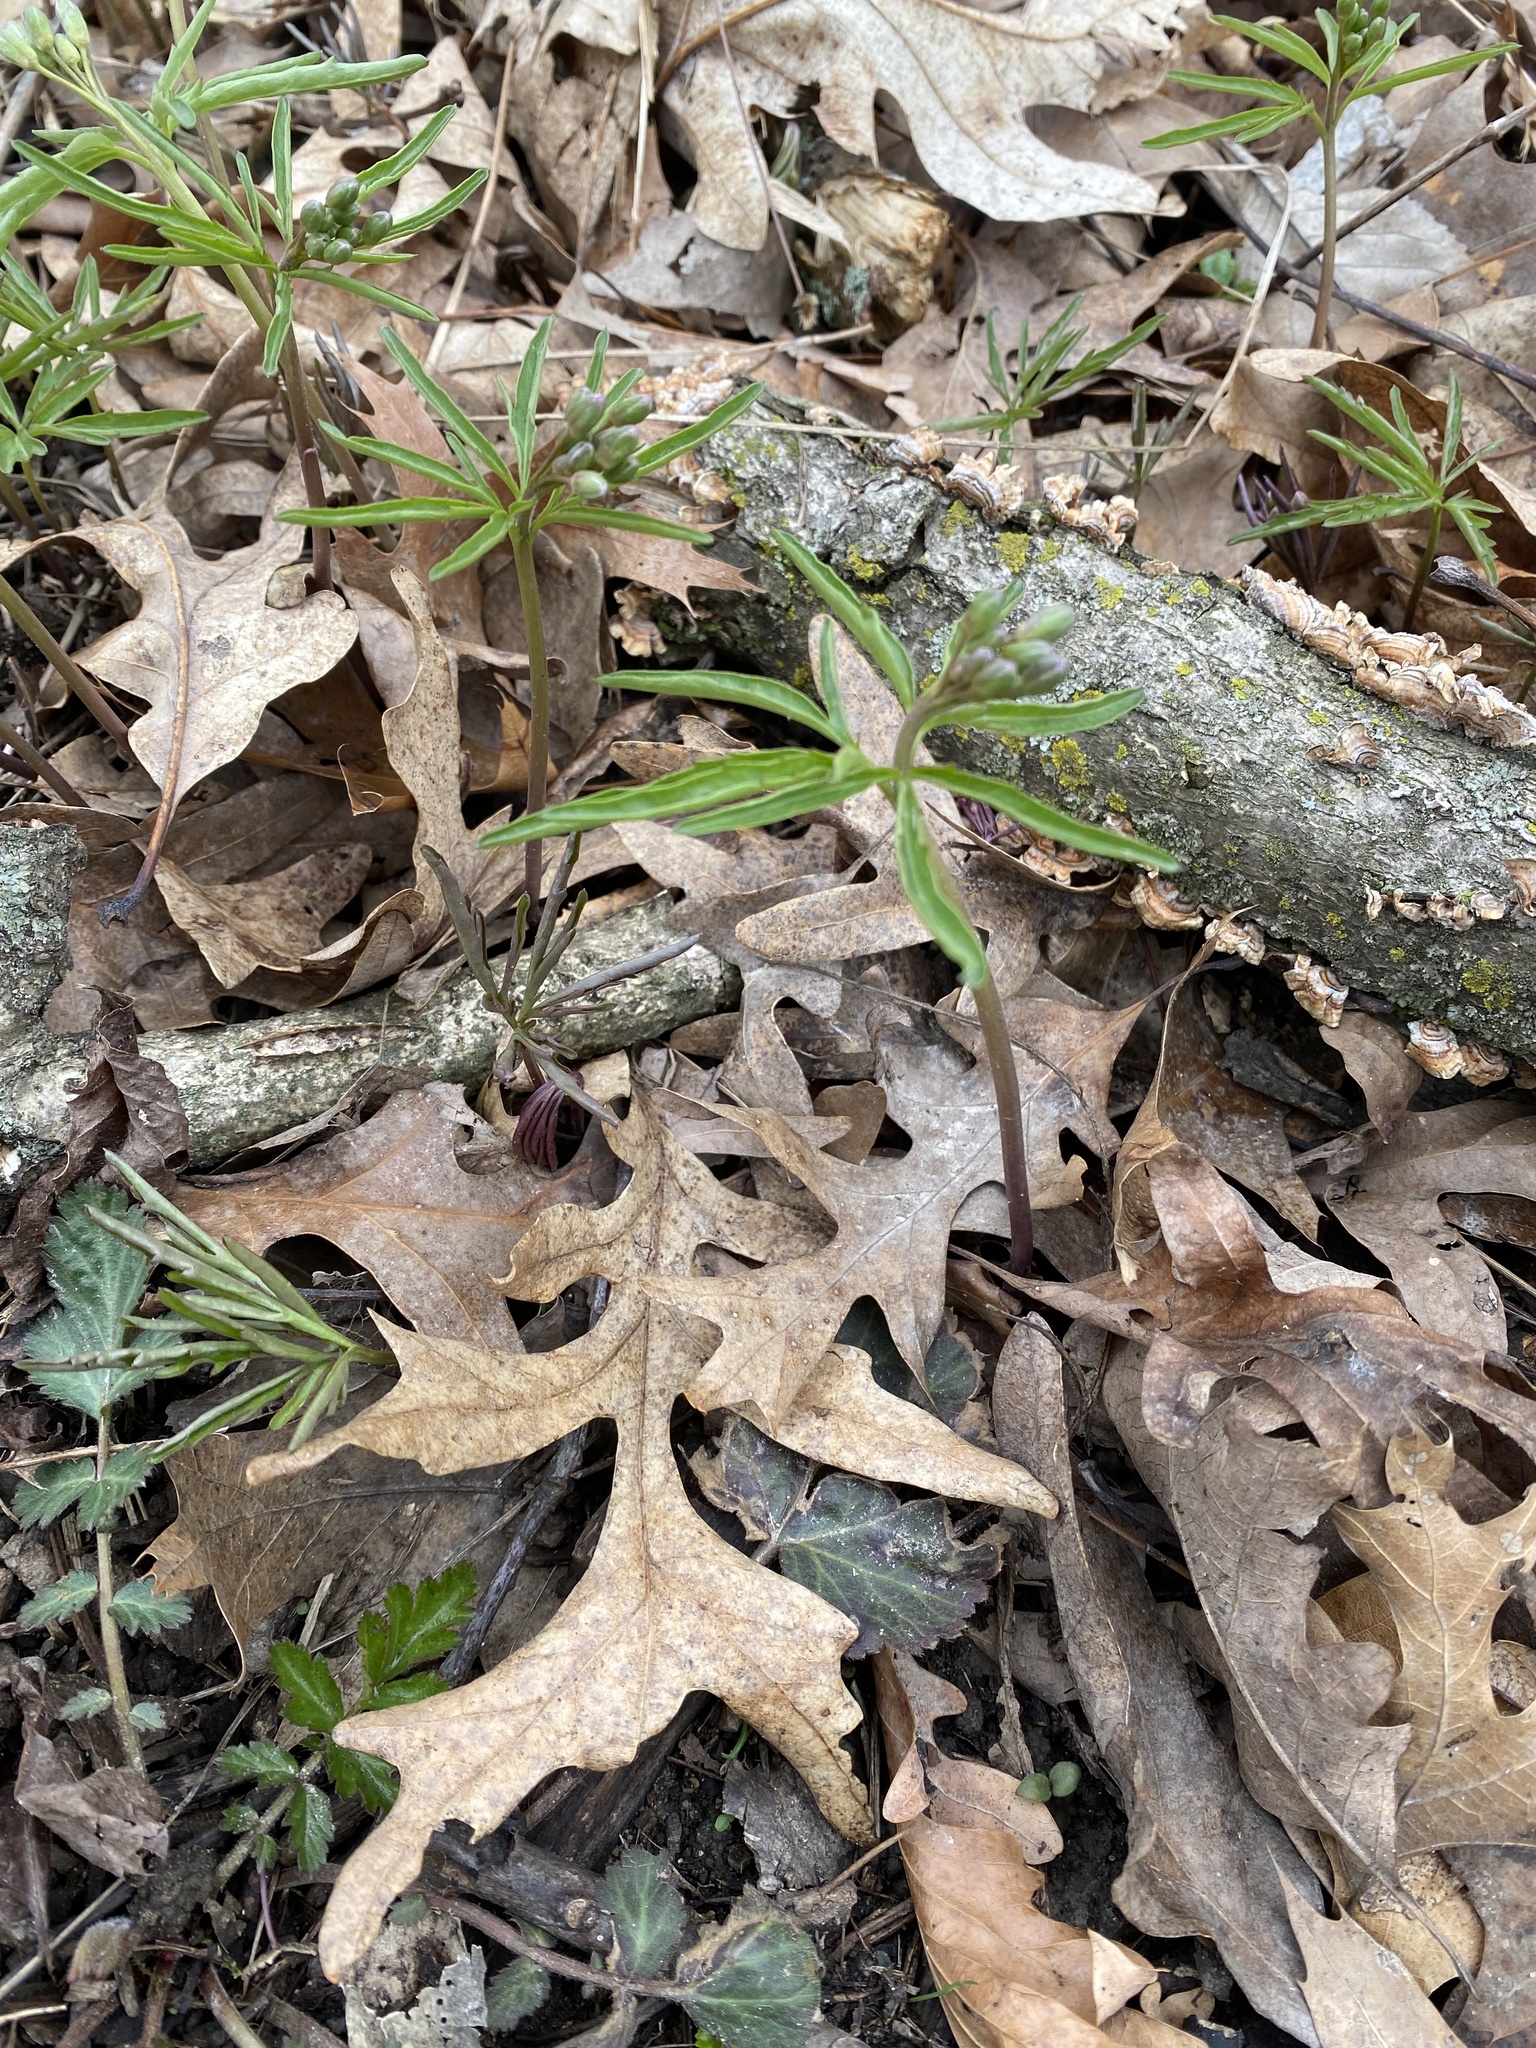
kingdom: Plantae
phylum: Tracheophyta
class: Magnoliopsida
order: Brassicales
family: Brassicaceae
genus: Cardamine
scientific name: Cardamine concatenata
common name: Cut-leaf toothcup
